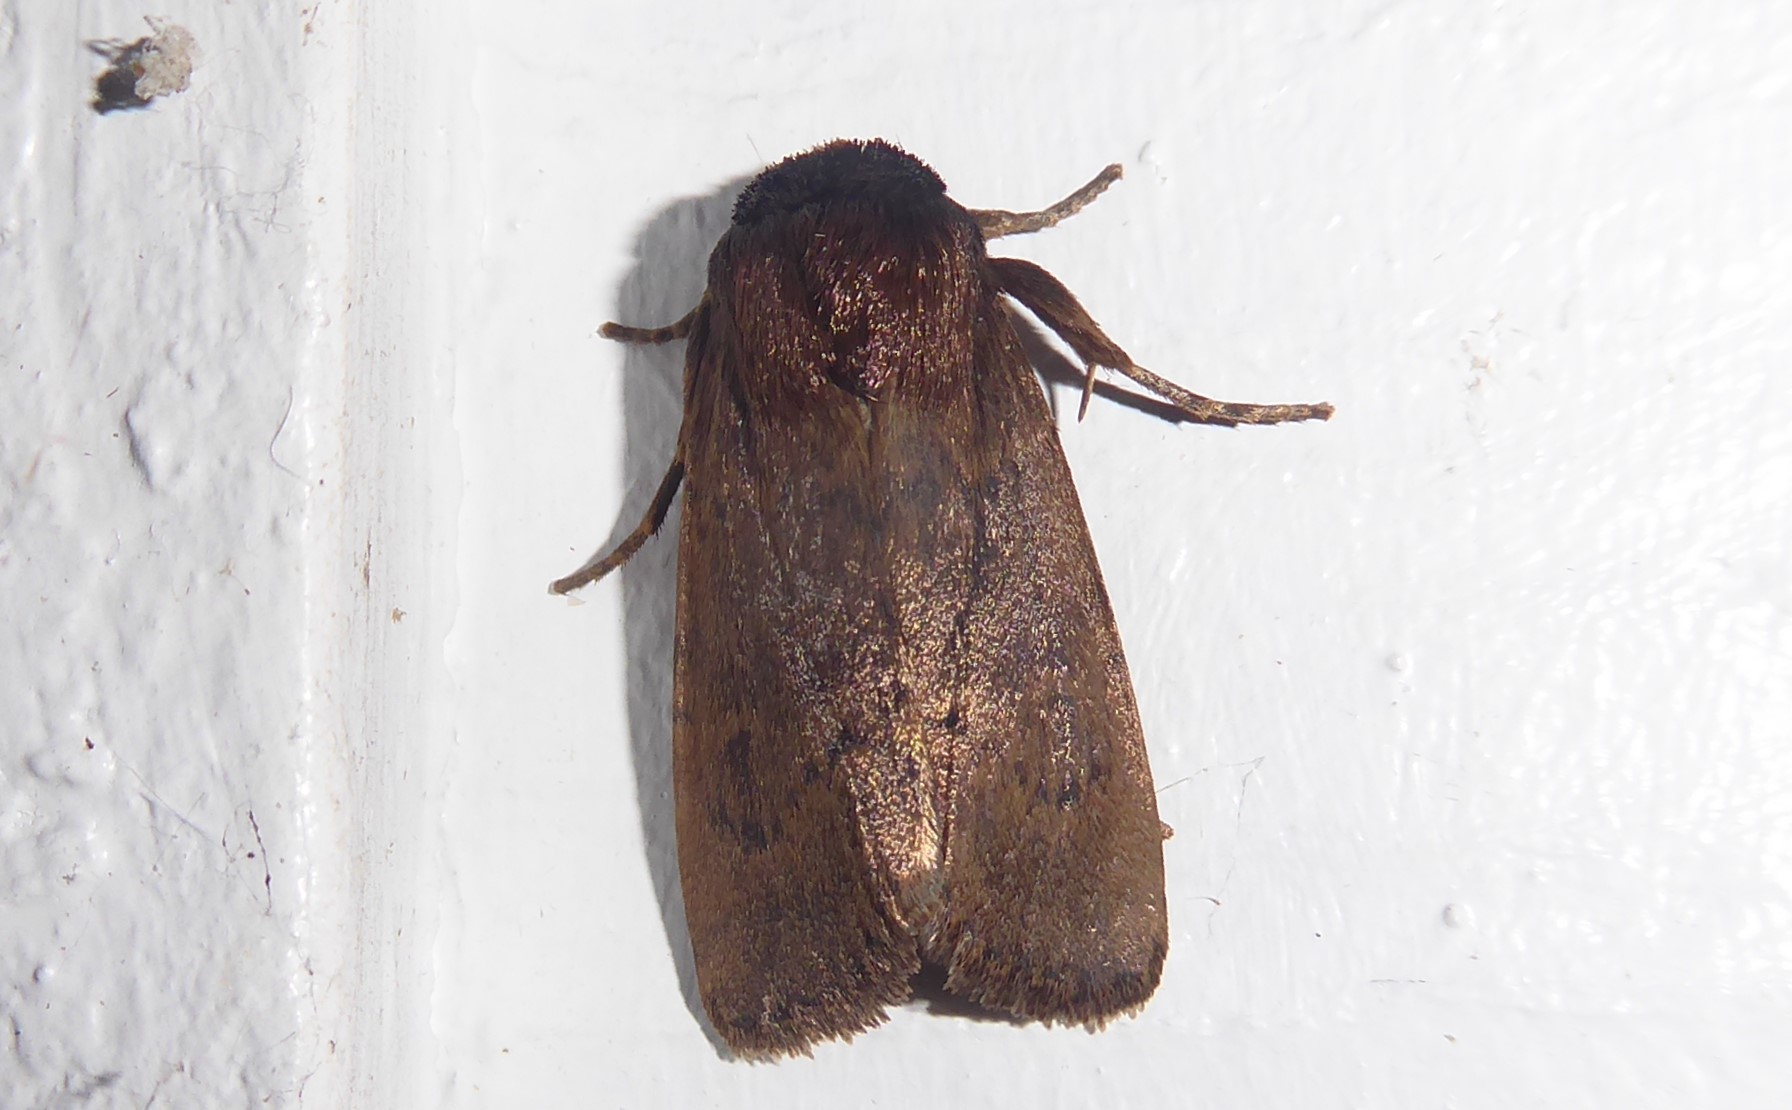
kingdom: Animalia
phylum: Arthropoda
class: Insecta
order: Lepidoptera
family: Noctuidae
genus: Bityla
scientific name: Bityla defigurata
